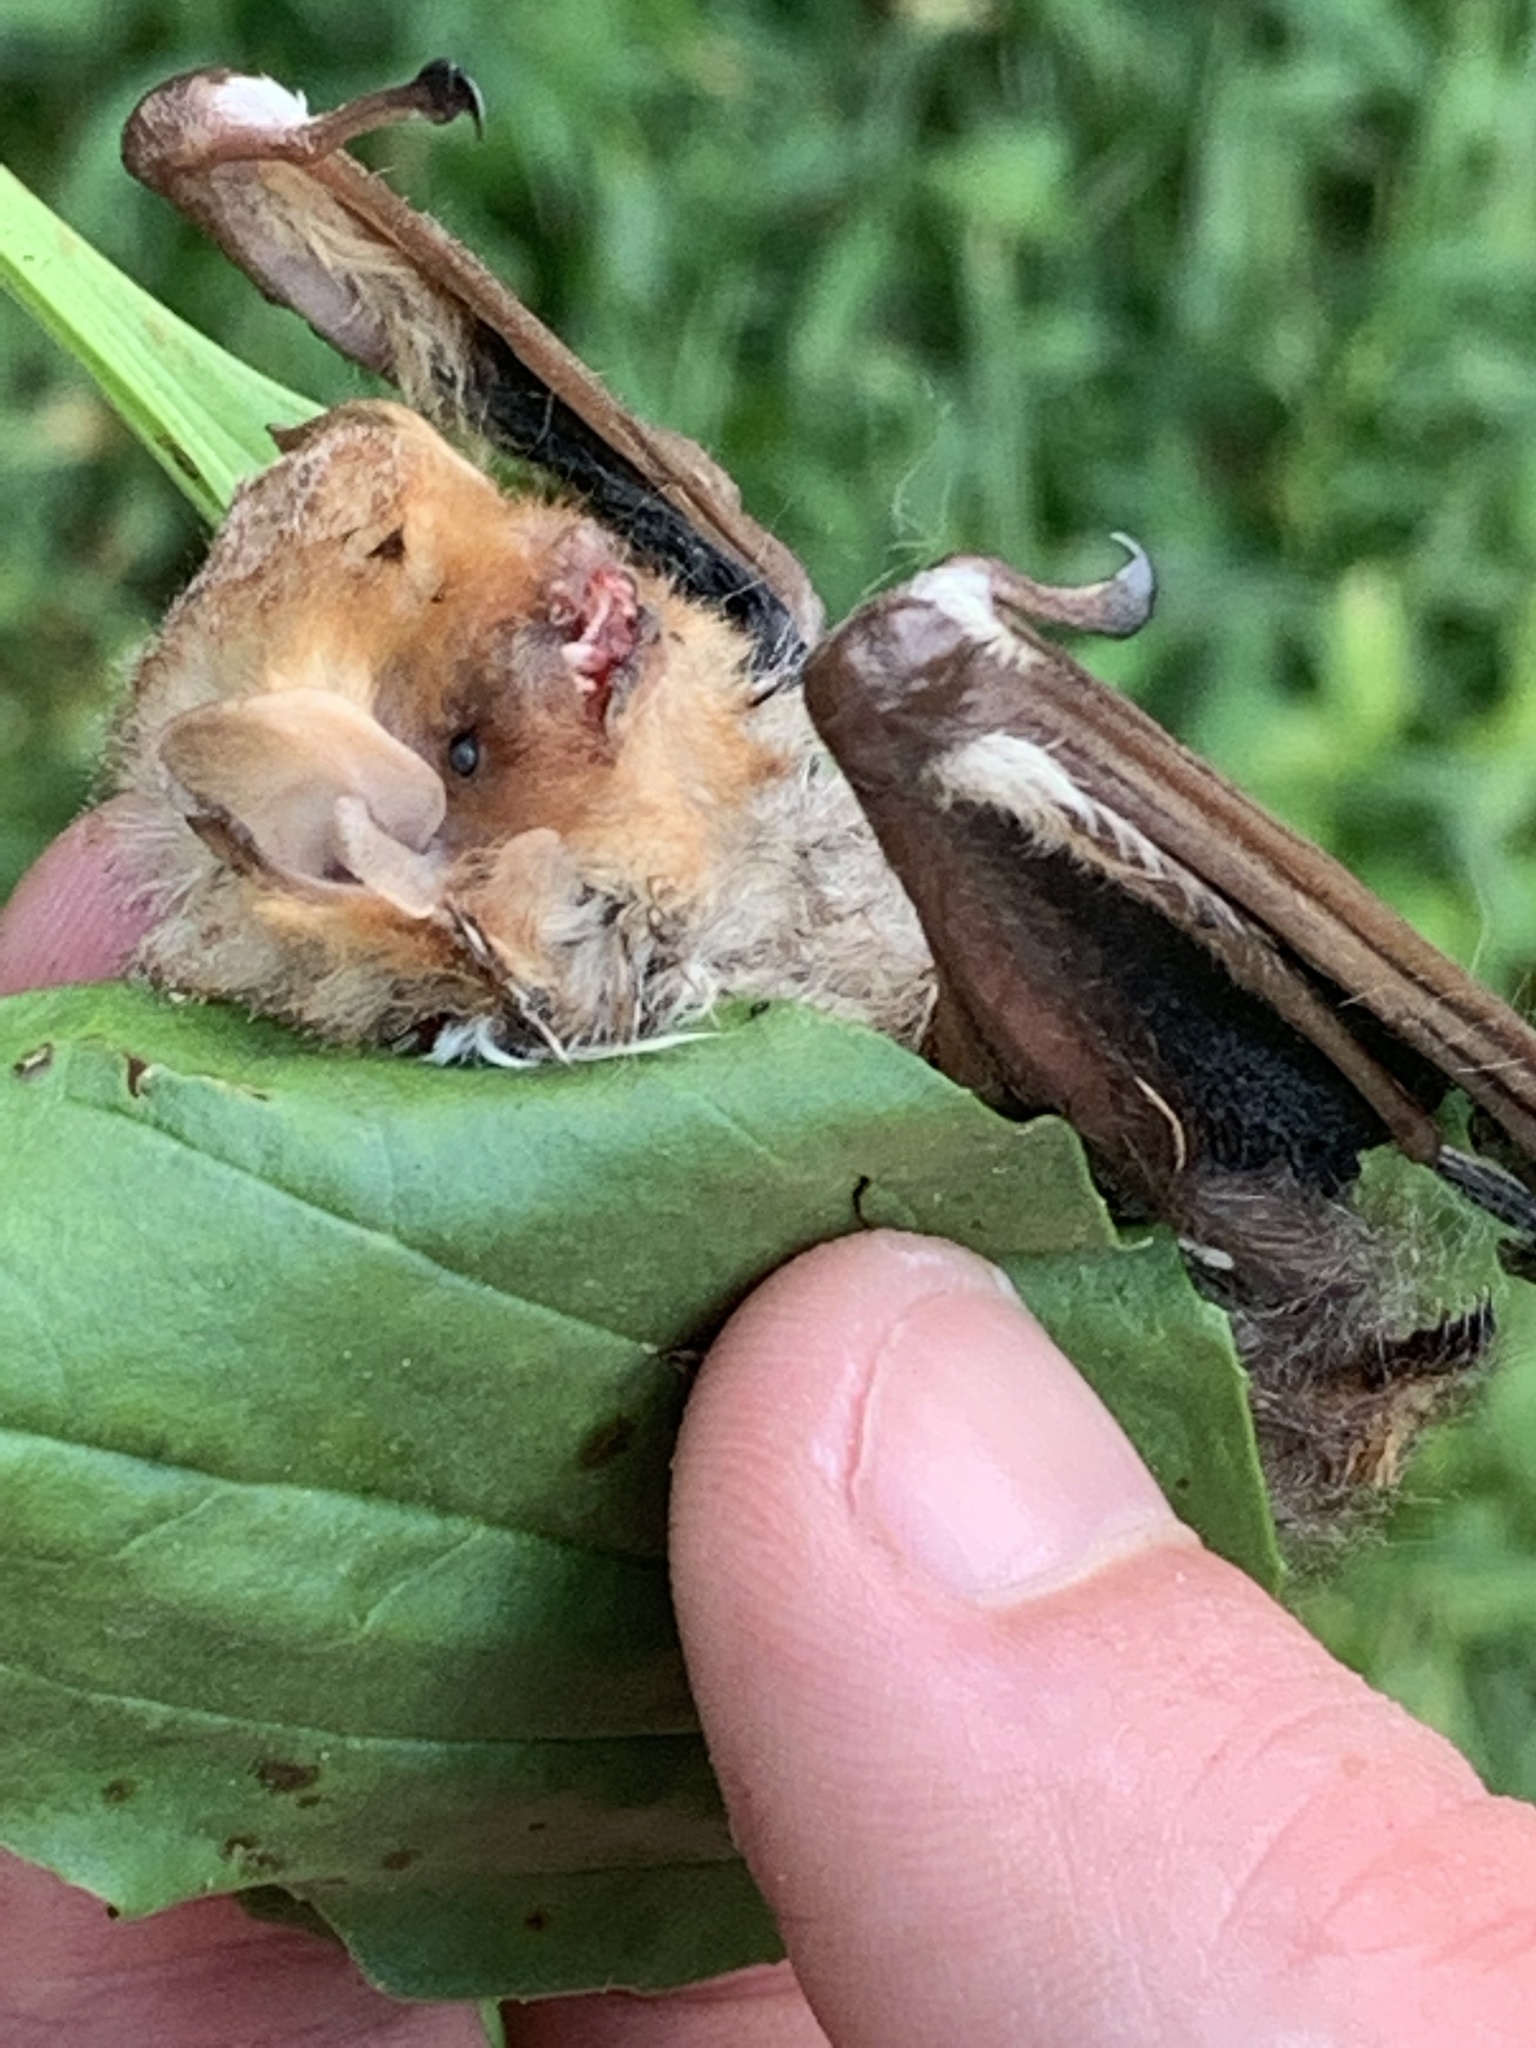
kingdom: Animalia
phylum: Chordata
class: Mammalia
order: Chiroptera
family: Vespertilionidae
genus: Lasiurus
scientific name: Lasiurus borealis
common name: Eastern red bat
